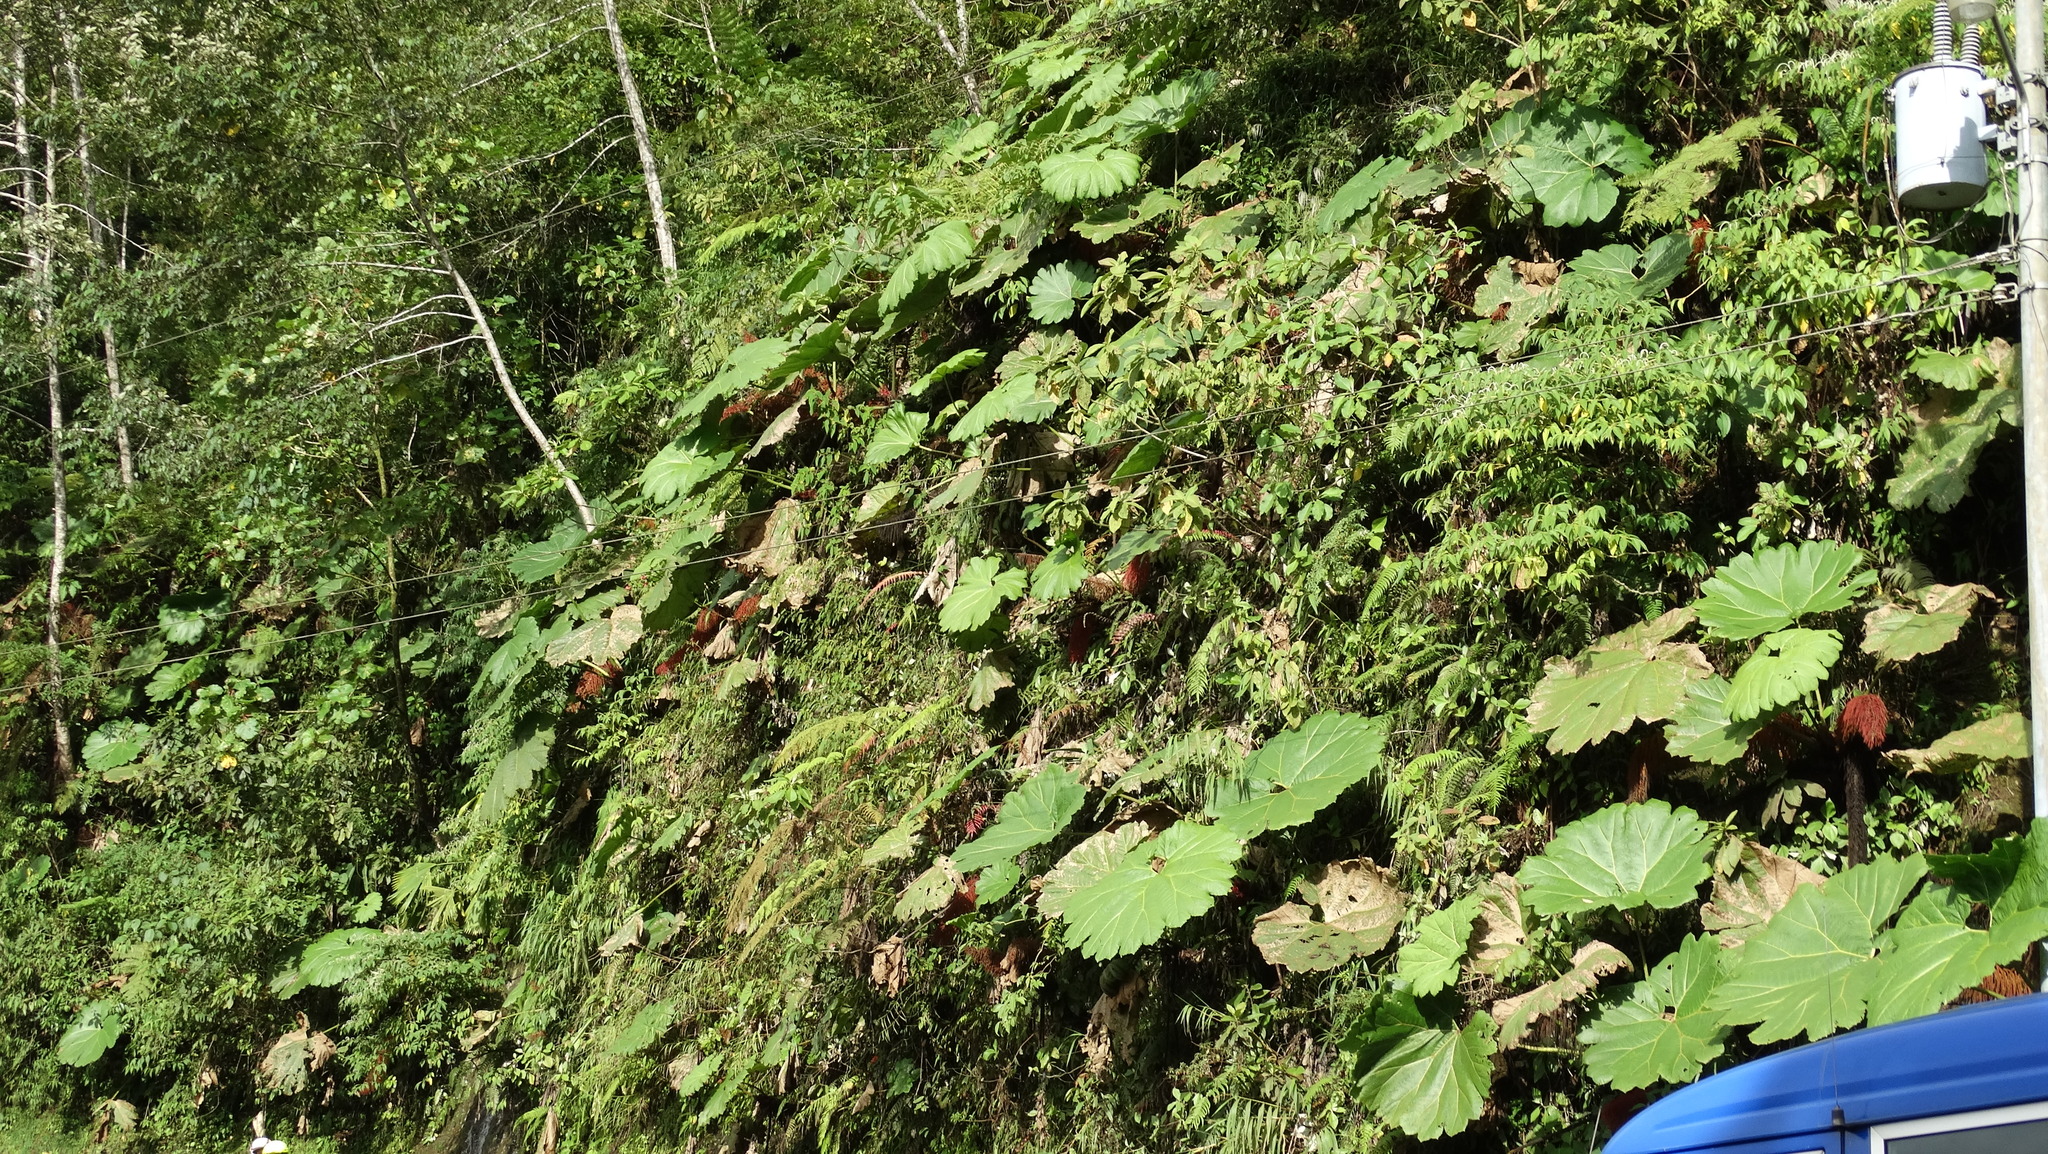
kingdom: Plantae
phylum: Tracheophyta
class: Magnoliopsida
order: Gunnerales
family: Gunneraceae
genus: Gunnera
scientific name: Gunnera insignis
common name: Poorman's umbrella
